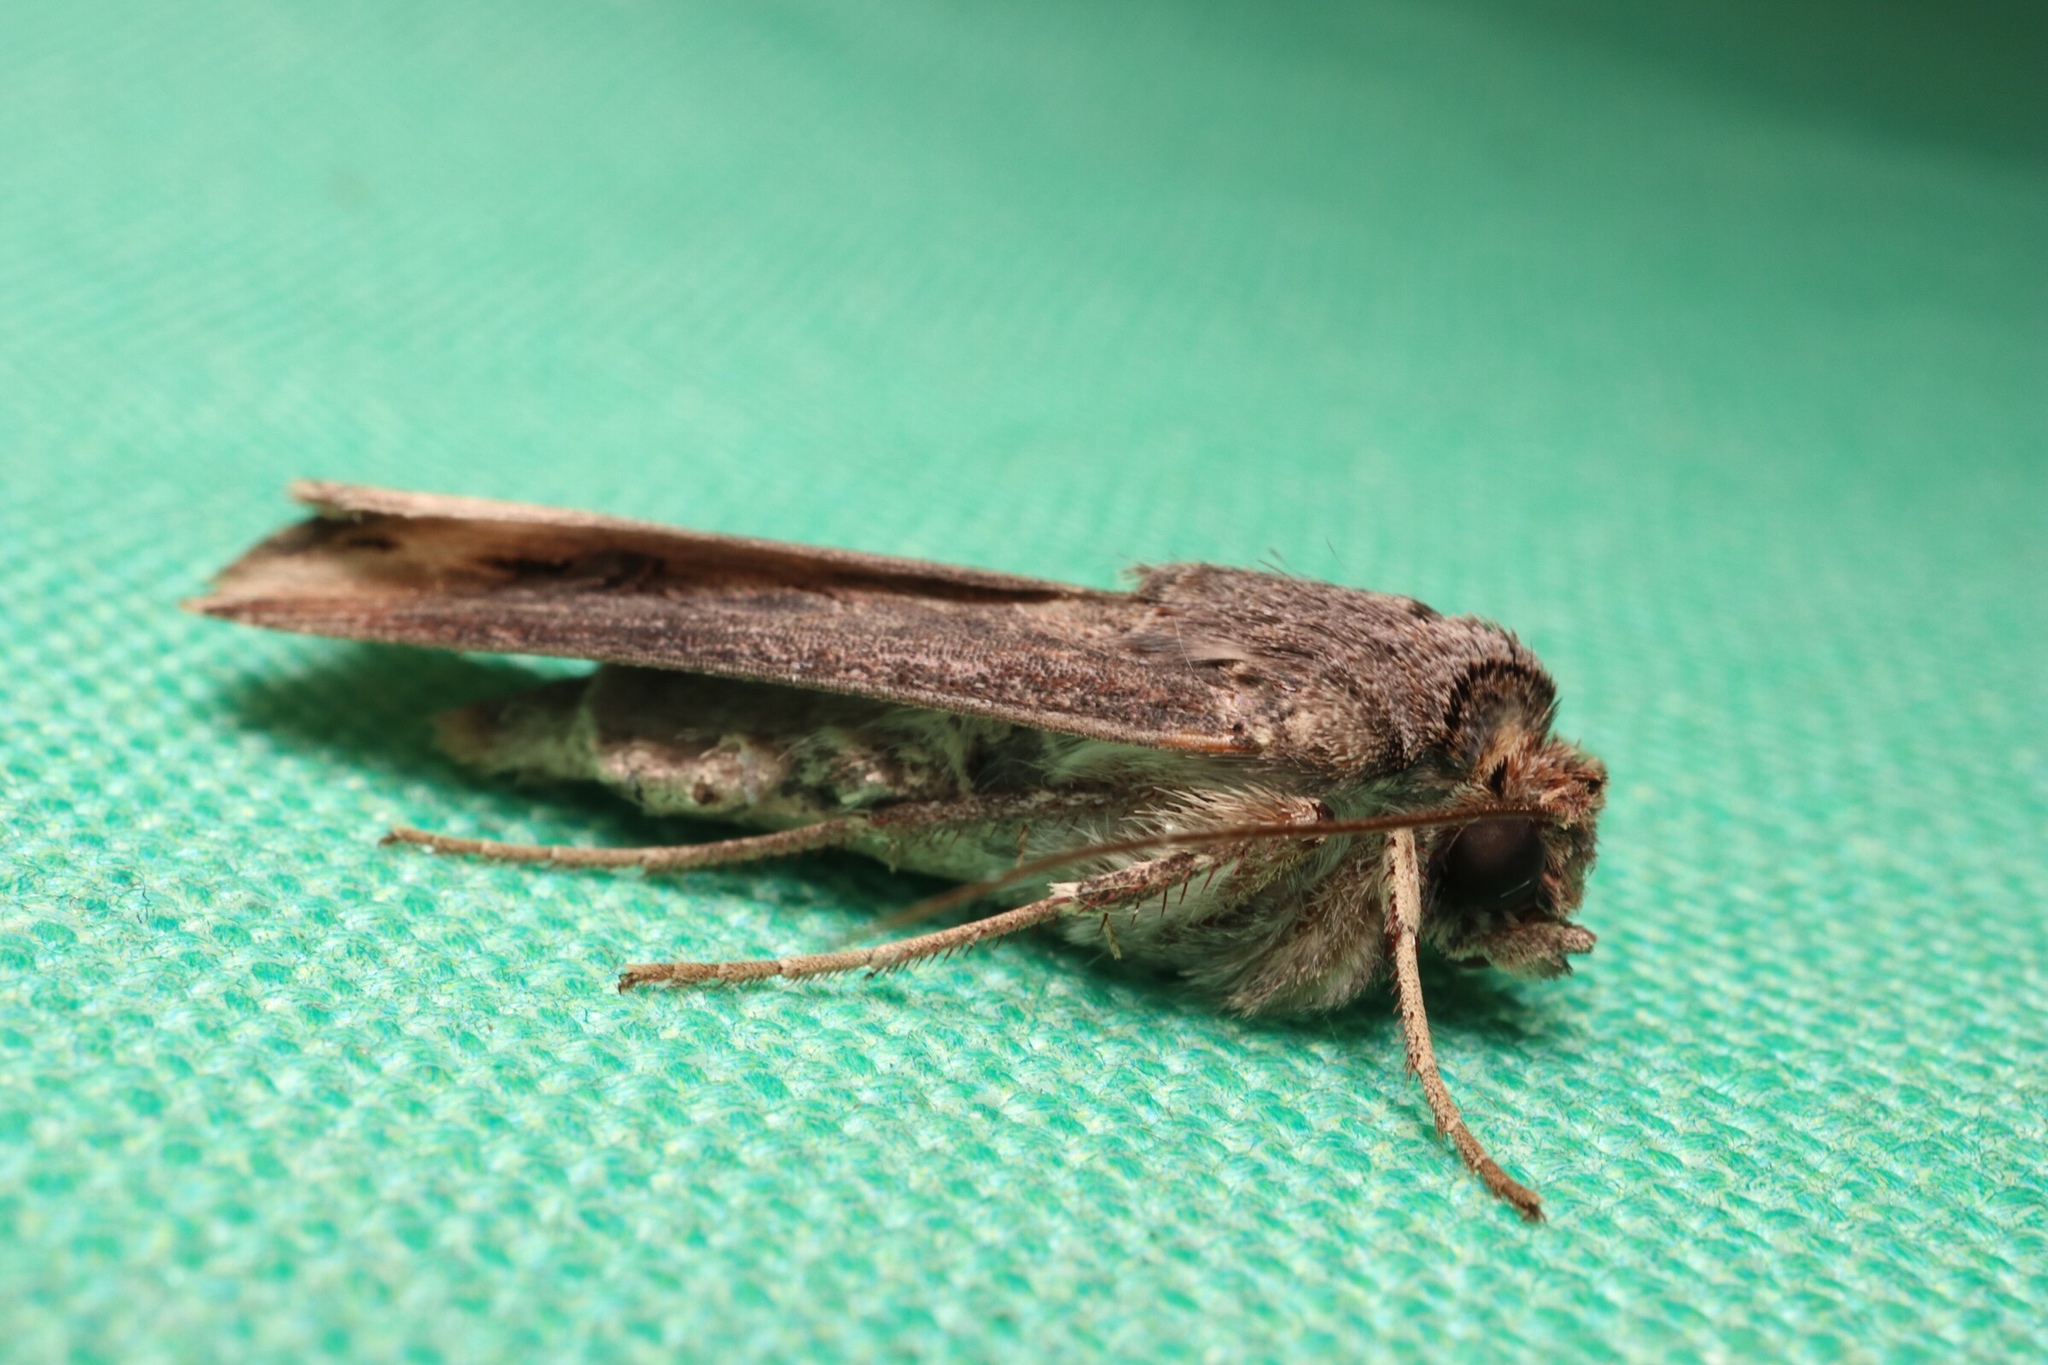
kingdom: Animalia
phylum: Arthropoda
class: Insecta
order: Lepidoptera
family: Noctuidae
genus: Agrotis
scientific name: Agrotis ipsilon
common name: Dark sword-grass
